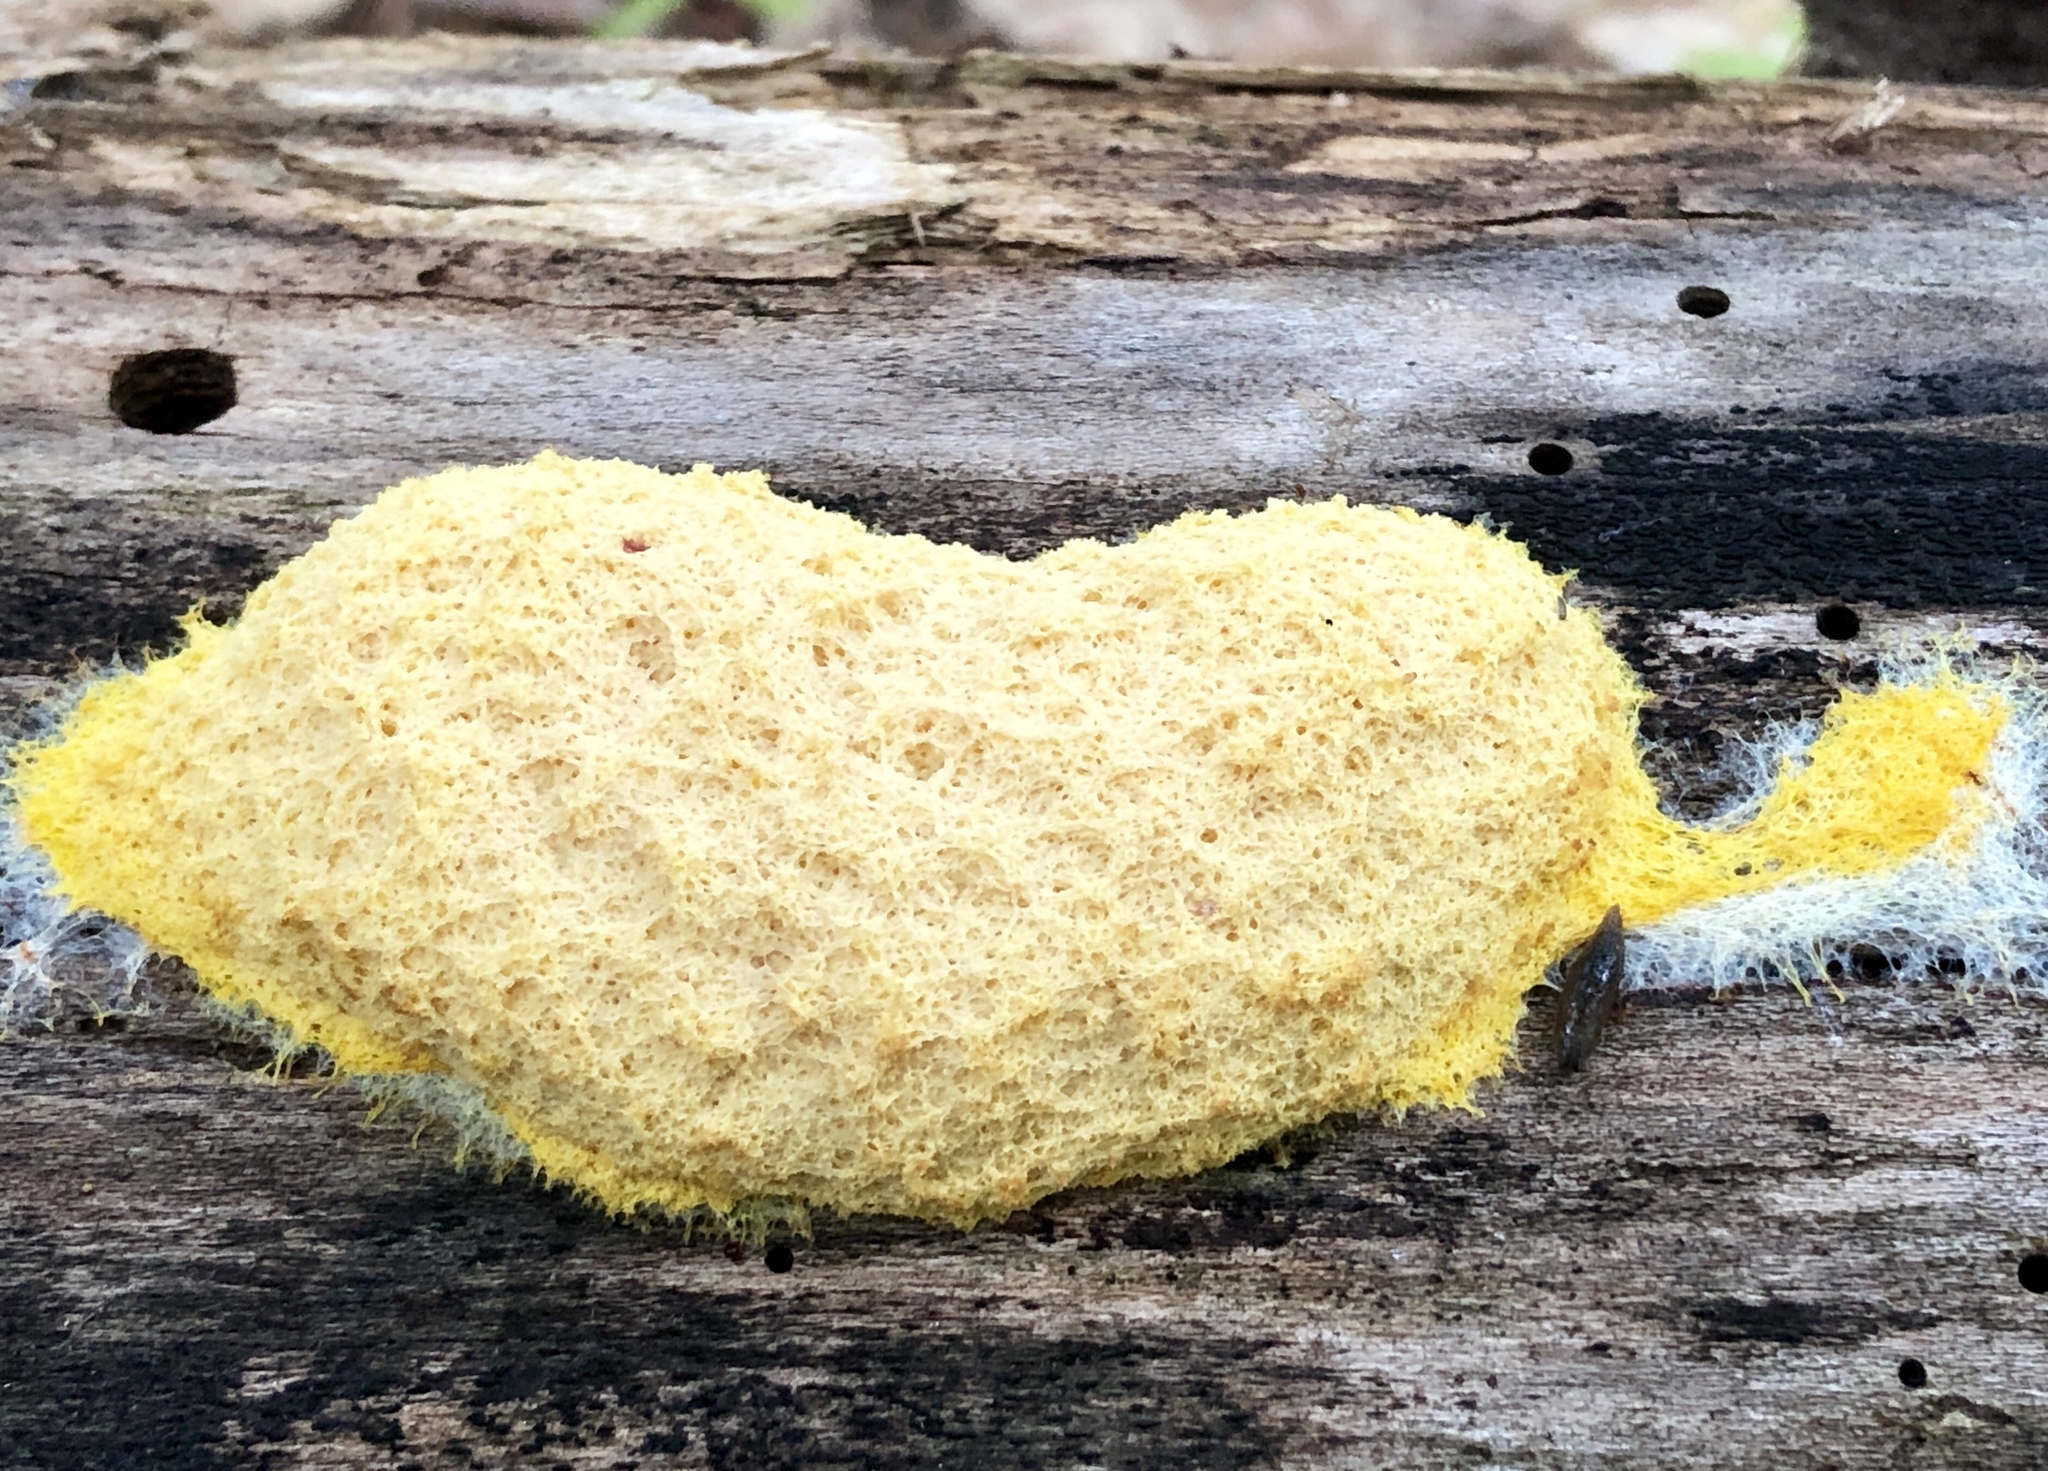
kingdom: Protozoa
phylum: Mycetozoa
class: Myxomycetes
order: Physarales
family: Physaraceae
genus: Fuligo
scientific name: Fuligo septica
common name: Dog vomit slime mold
